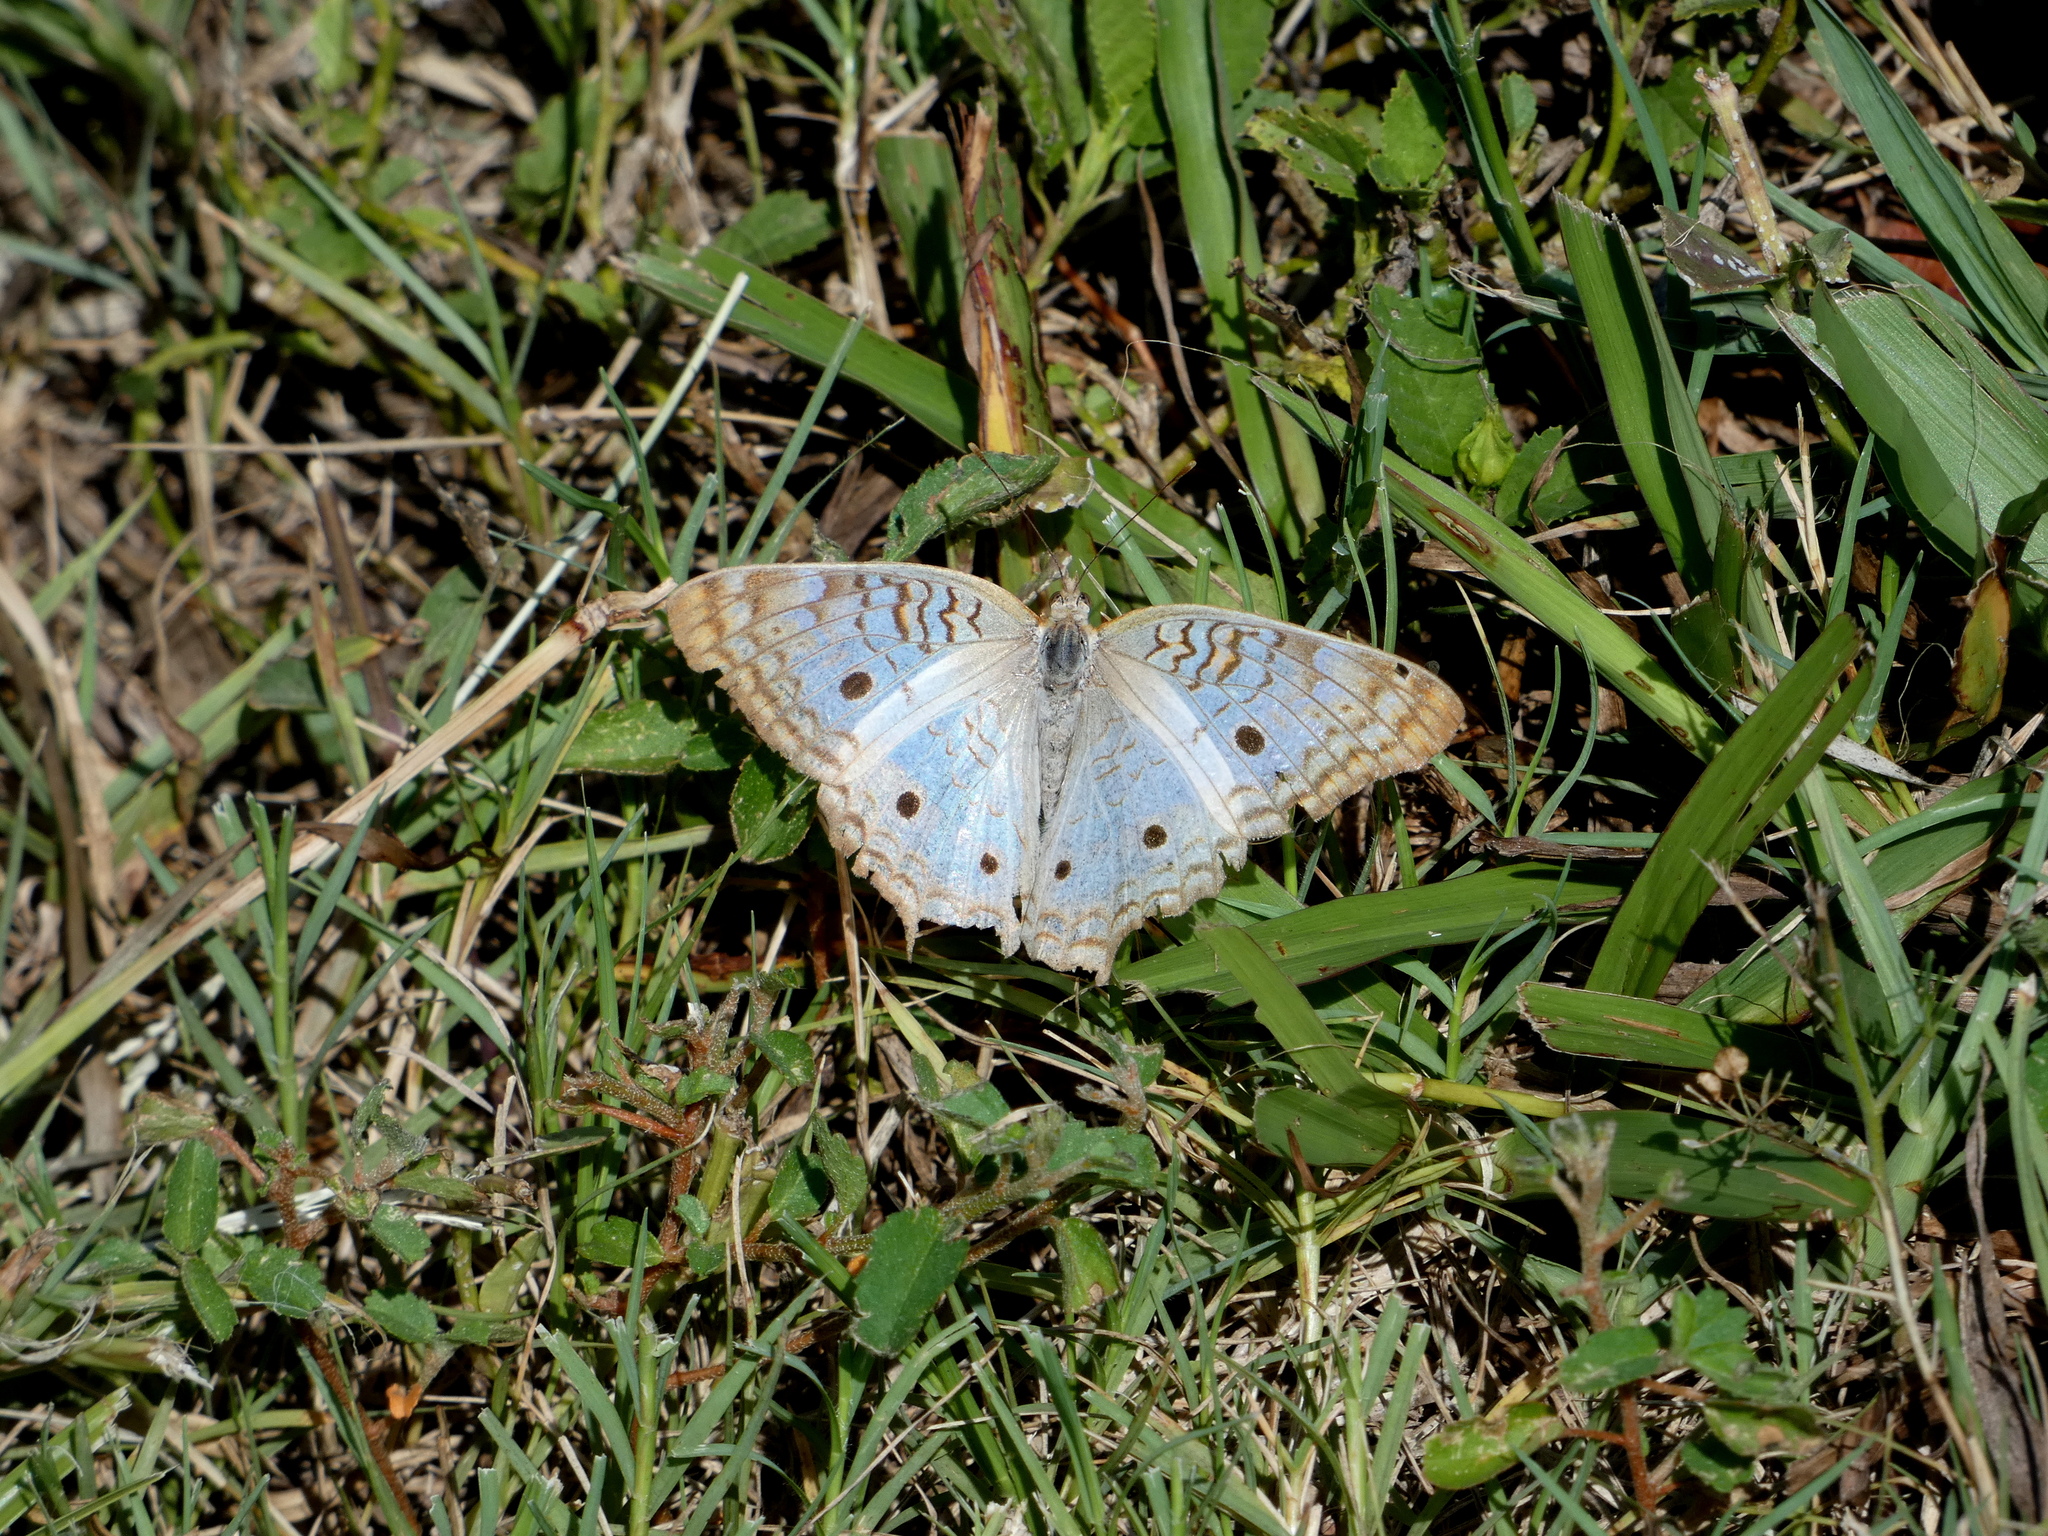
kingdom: Animalia
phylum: Arthropoda
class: Insecta
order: Lepidoptera
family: Nymphalidae
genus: Anartia
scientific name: Anartia jatrophae
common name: White peacock
